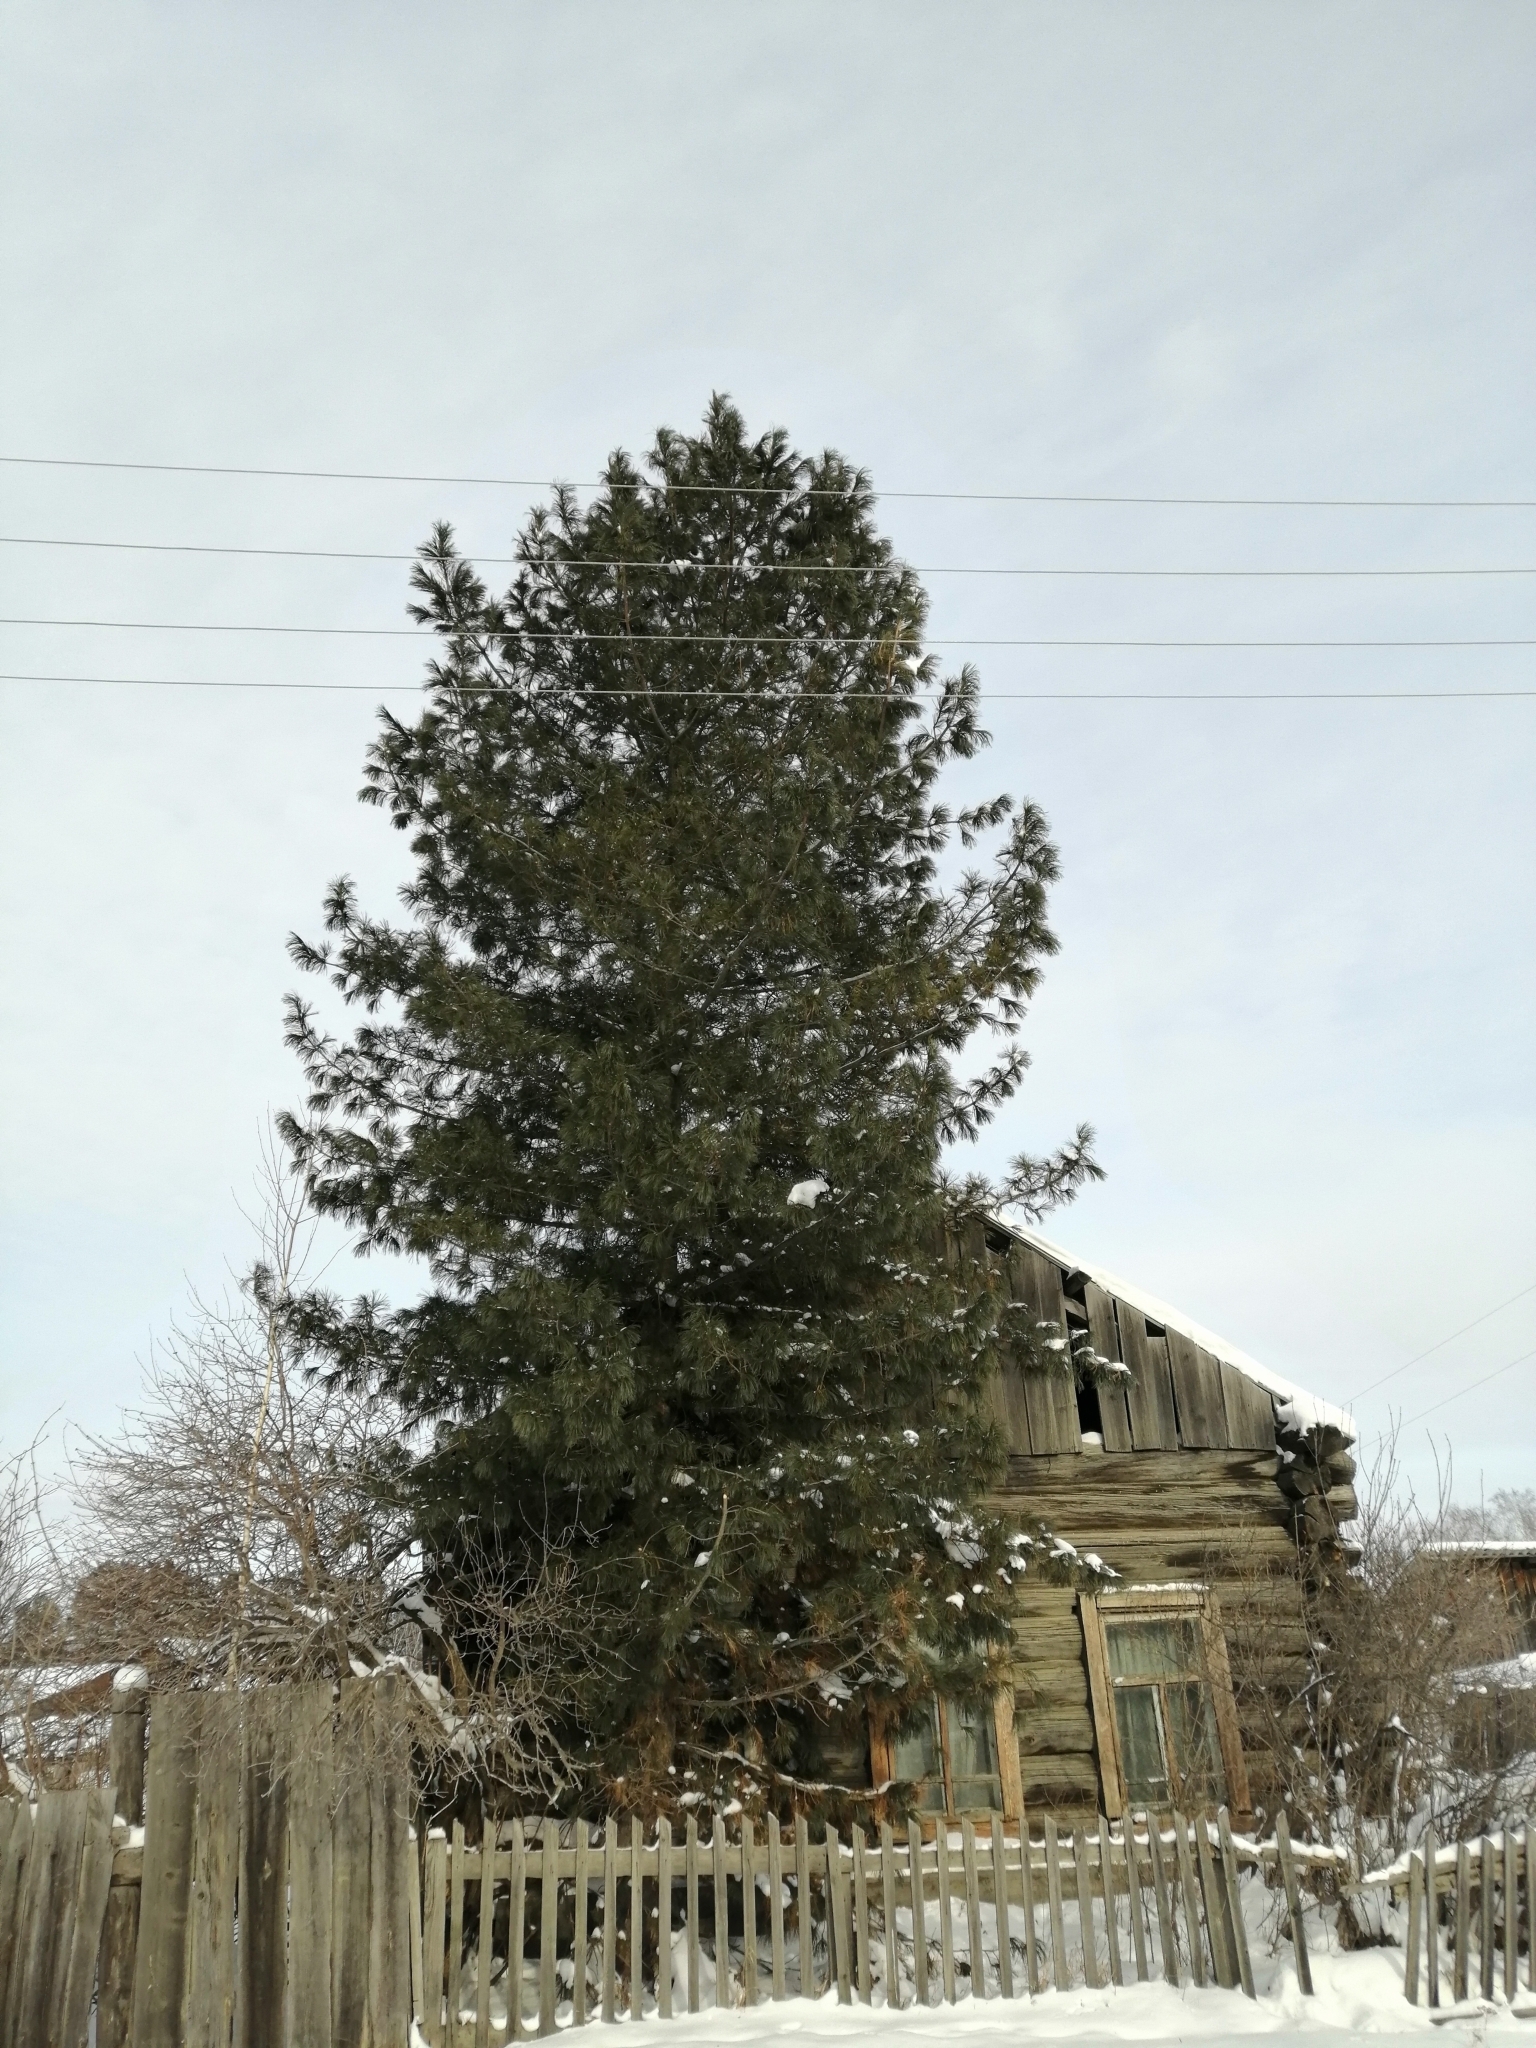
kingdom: Plantae
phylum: Tracheophyta
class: Pinopsida
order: Pinales
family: Pinaceae
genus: Pinus
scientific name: Pinus sibirica
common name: Siberian pine
